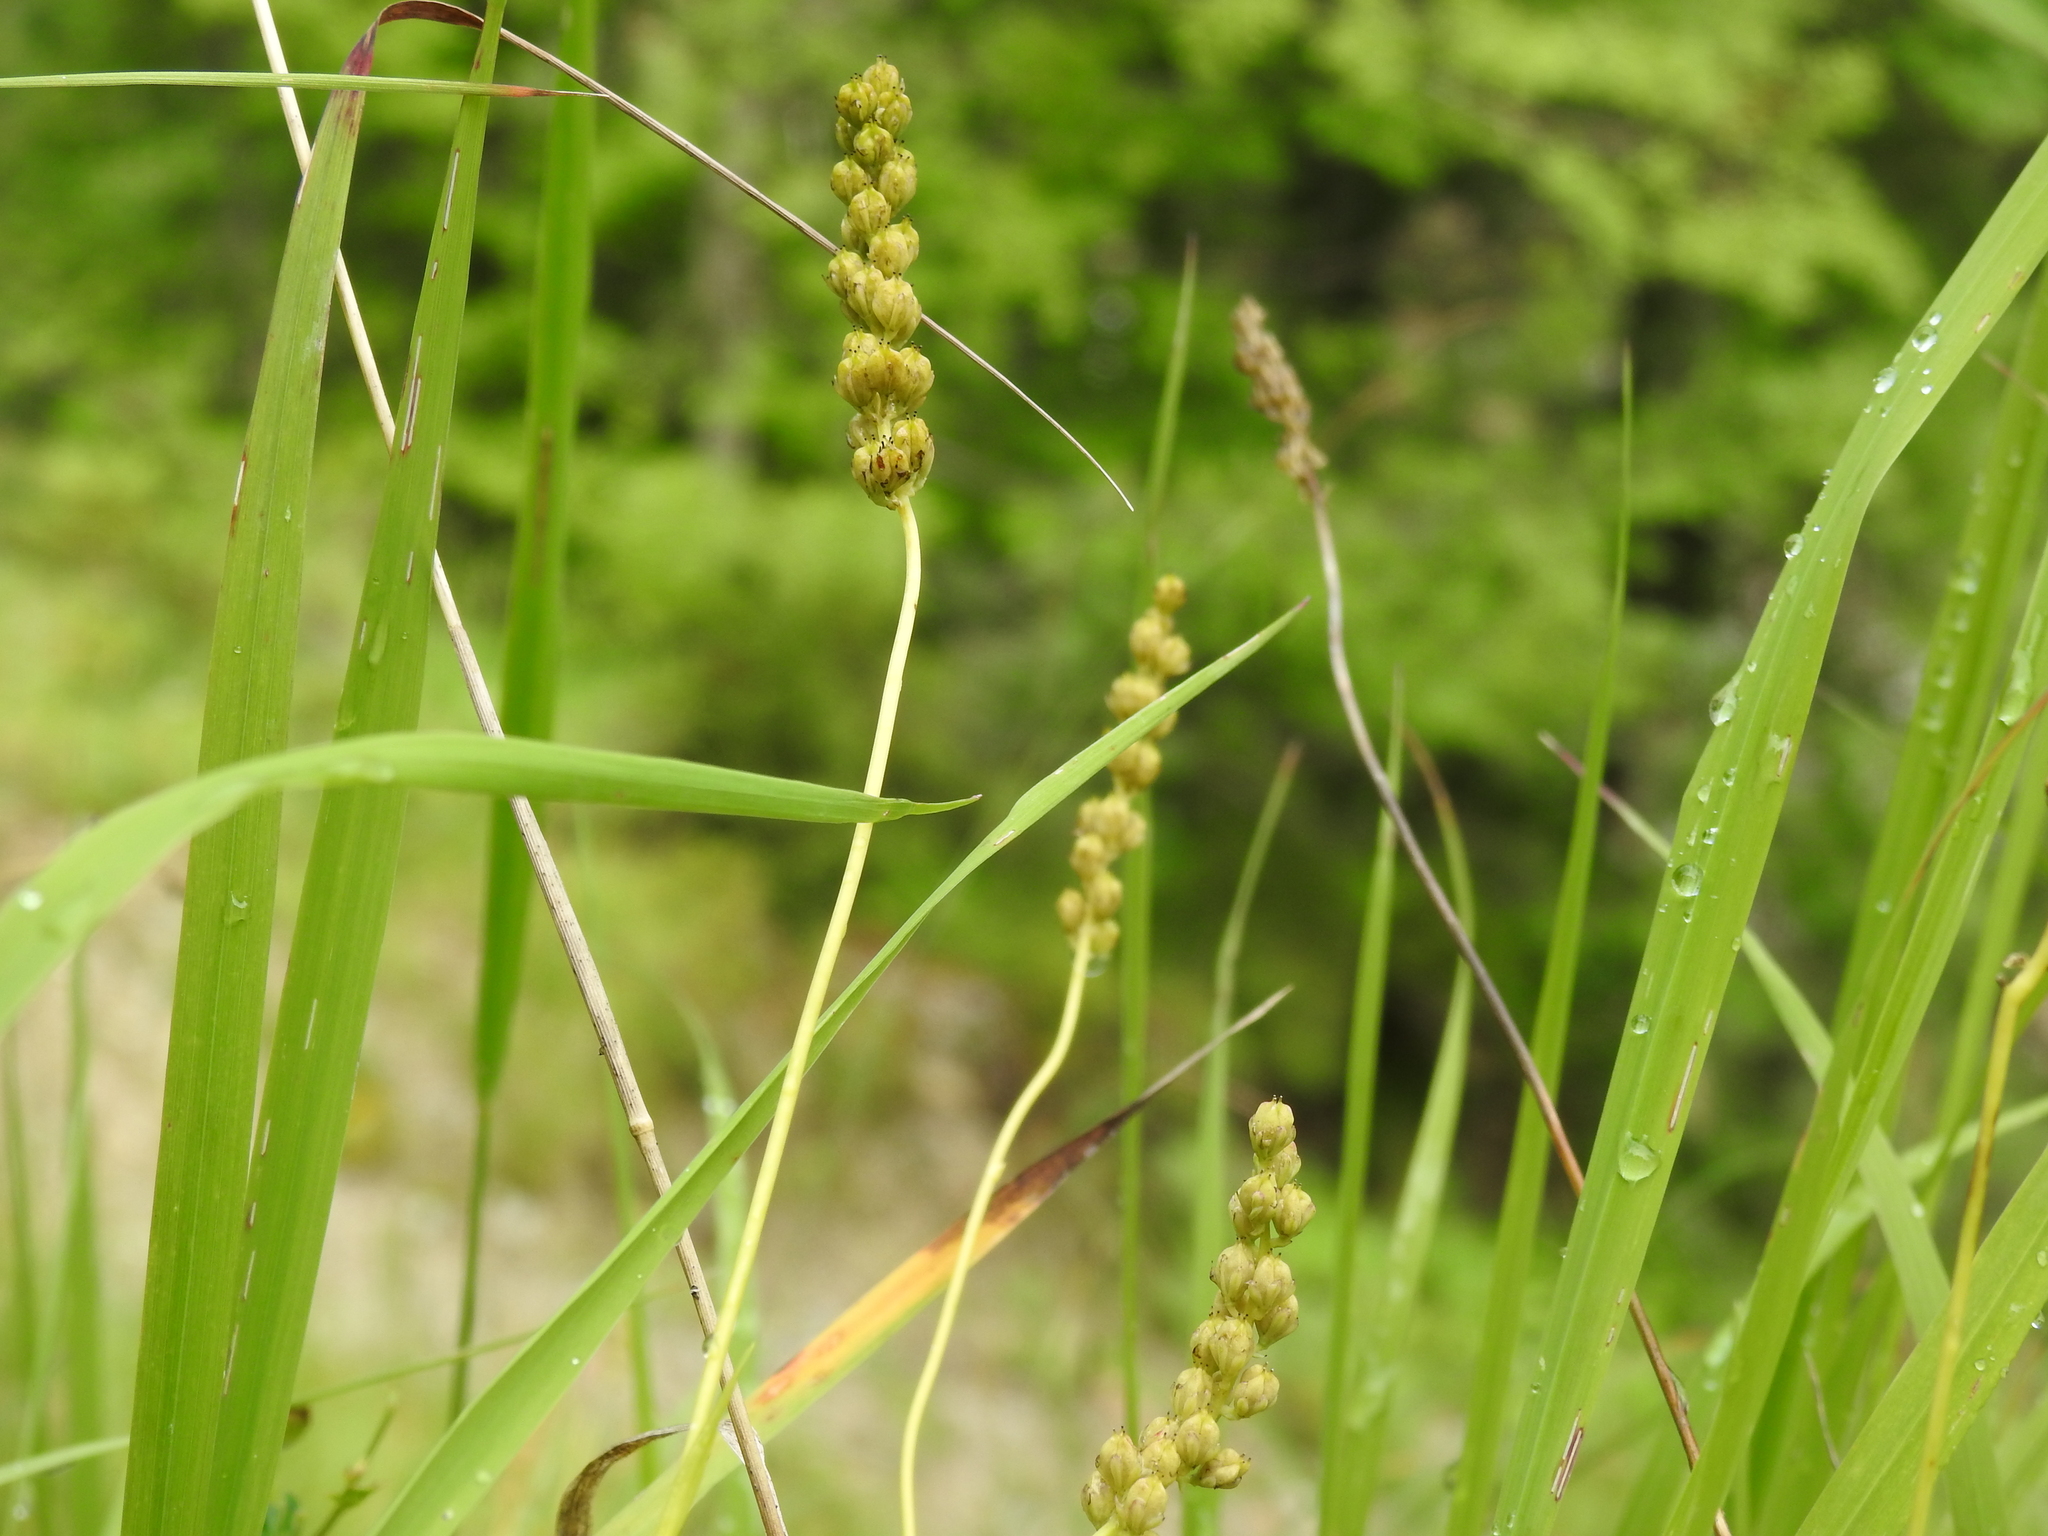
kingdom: Plantae
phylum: Tracheophyta
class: Liliopsida
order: Alismatales
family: Tofieldiaceae
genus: Tofieldia
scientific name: Tofieldia calyculata
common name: German-asphodel
